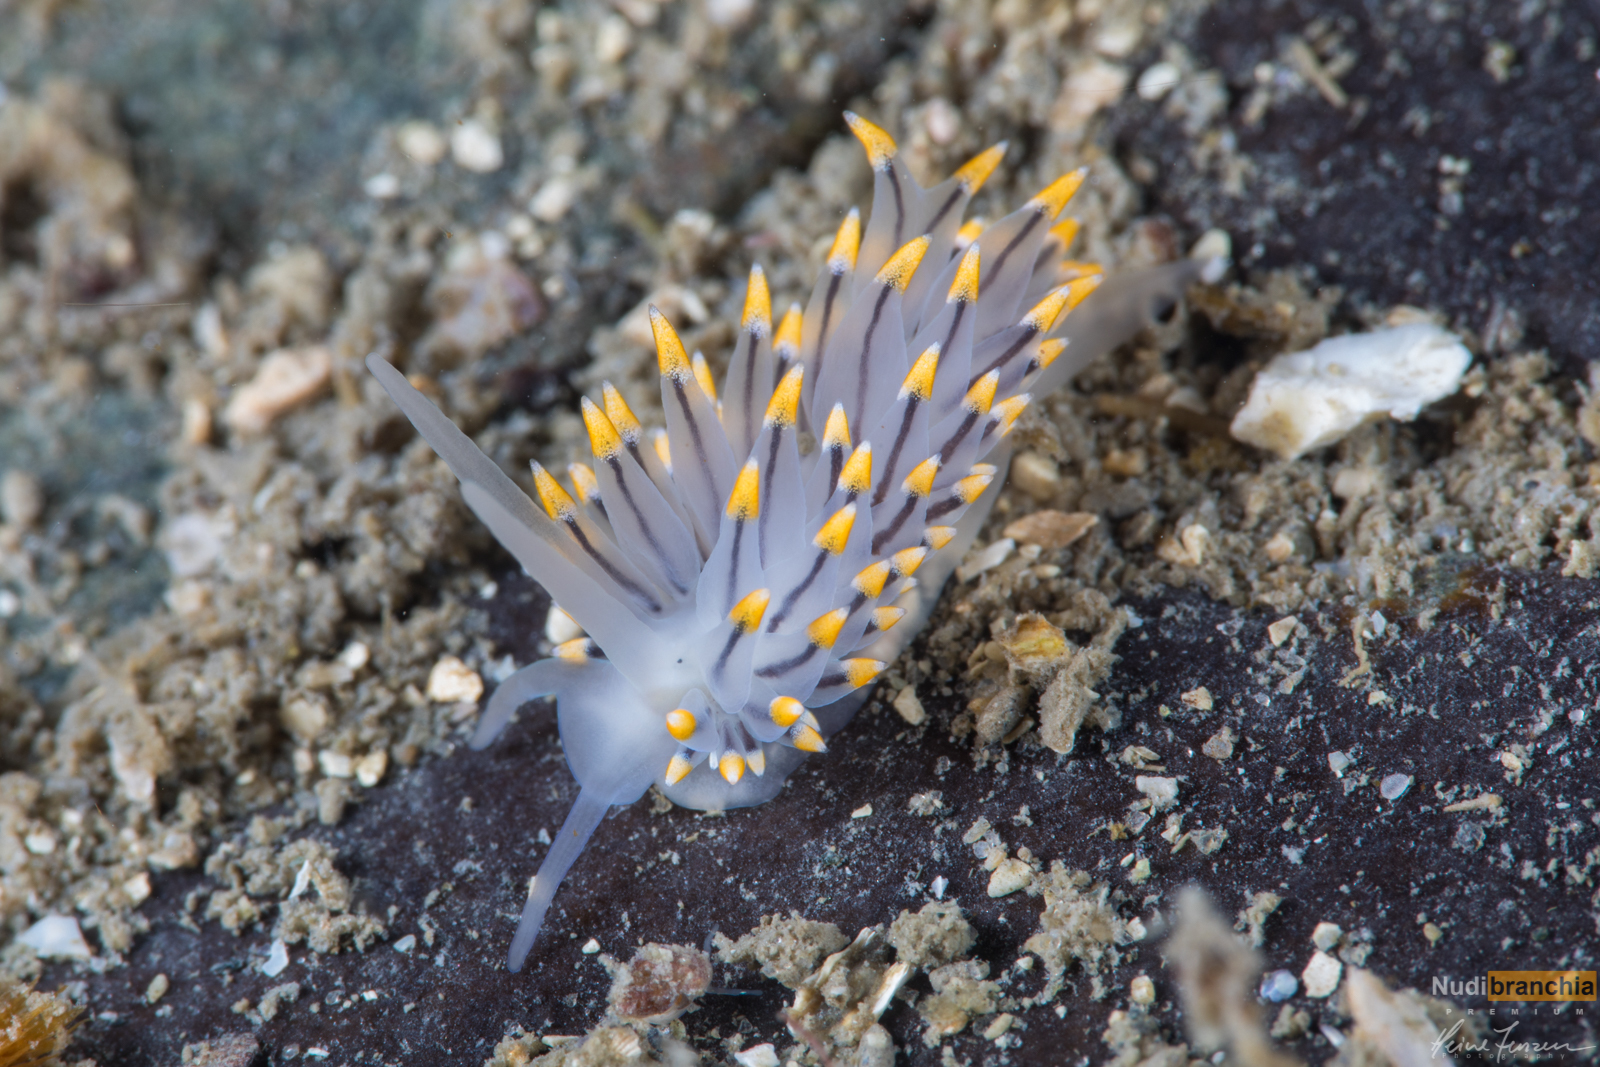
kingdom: Animalia
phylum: Mollusca
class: Gastropoda
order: Nudibranchia
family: Eubranchidae
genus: Eubranchus
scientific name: Eubranchus tricolor
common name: Painted balloon aeolis
